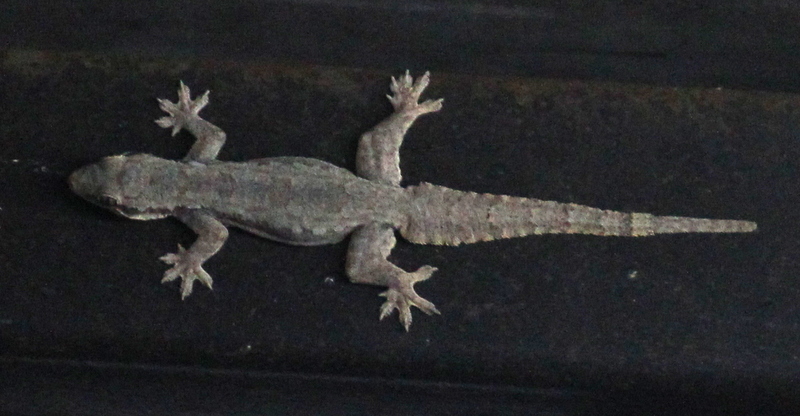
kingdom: Animalia
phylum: Chordata
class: Squamata
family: Gekkonidae
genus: Hemidactylus
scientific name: Hemidactylus platyurus
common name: Flat-tailed house gecko
